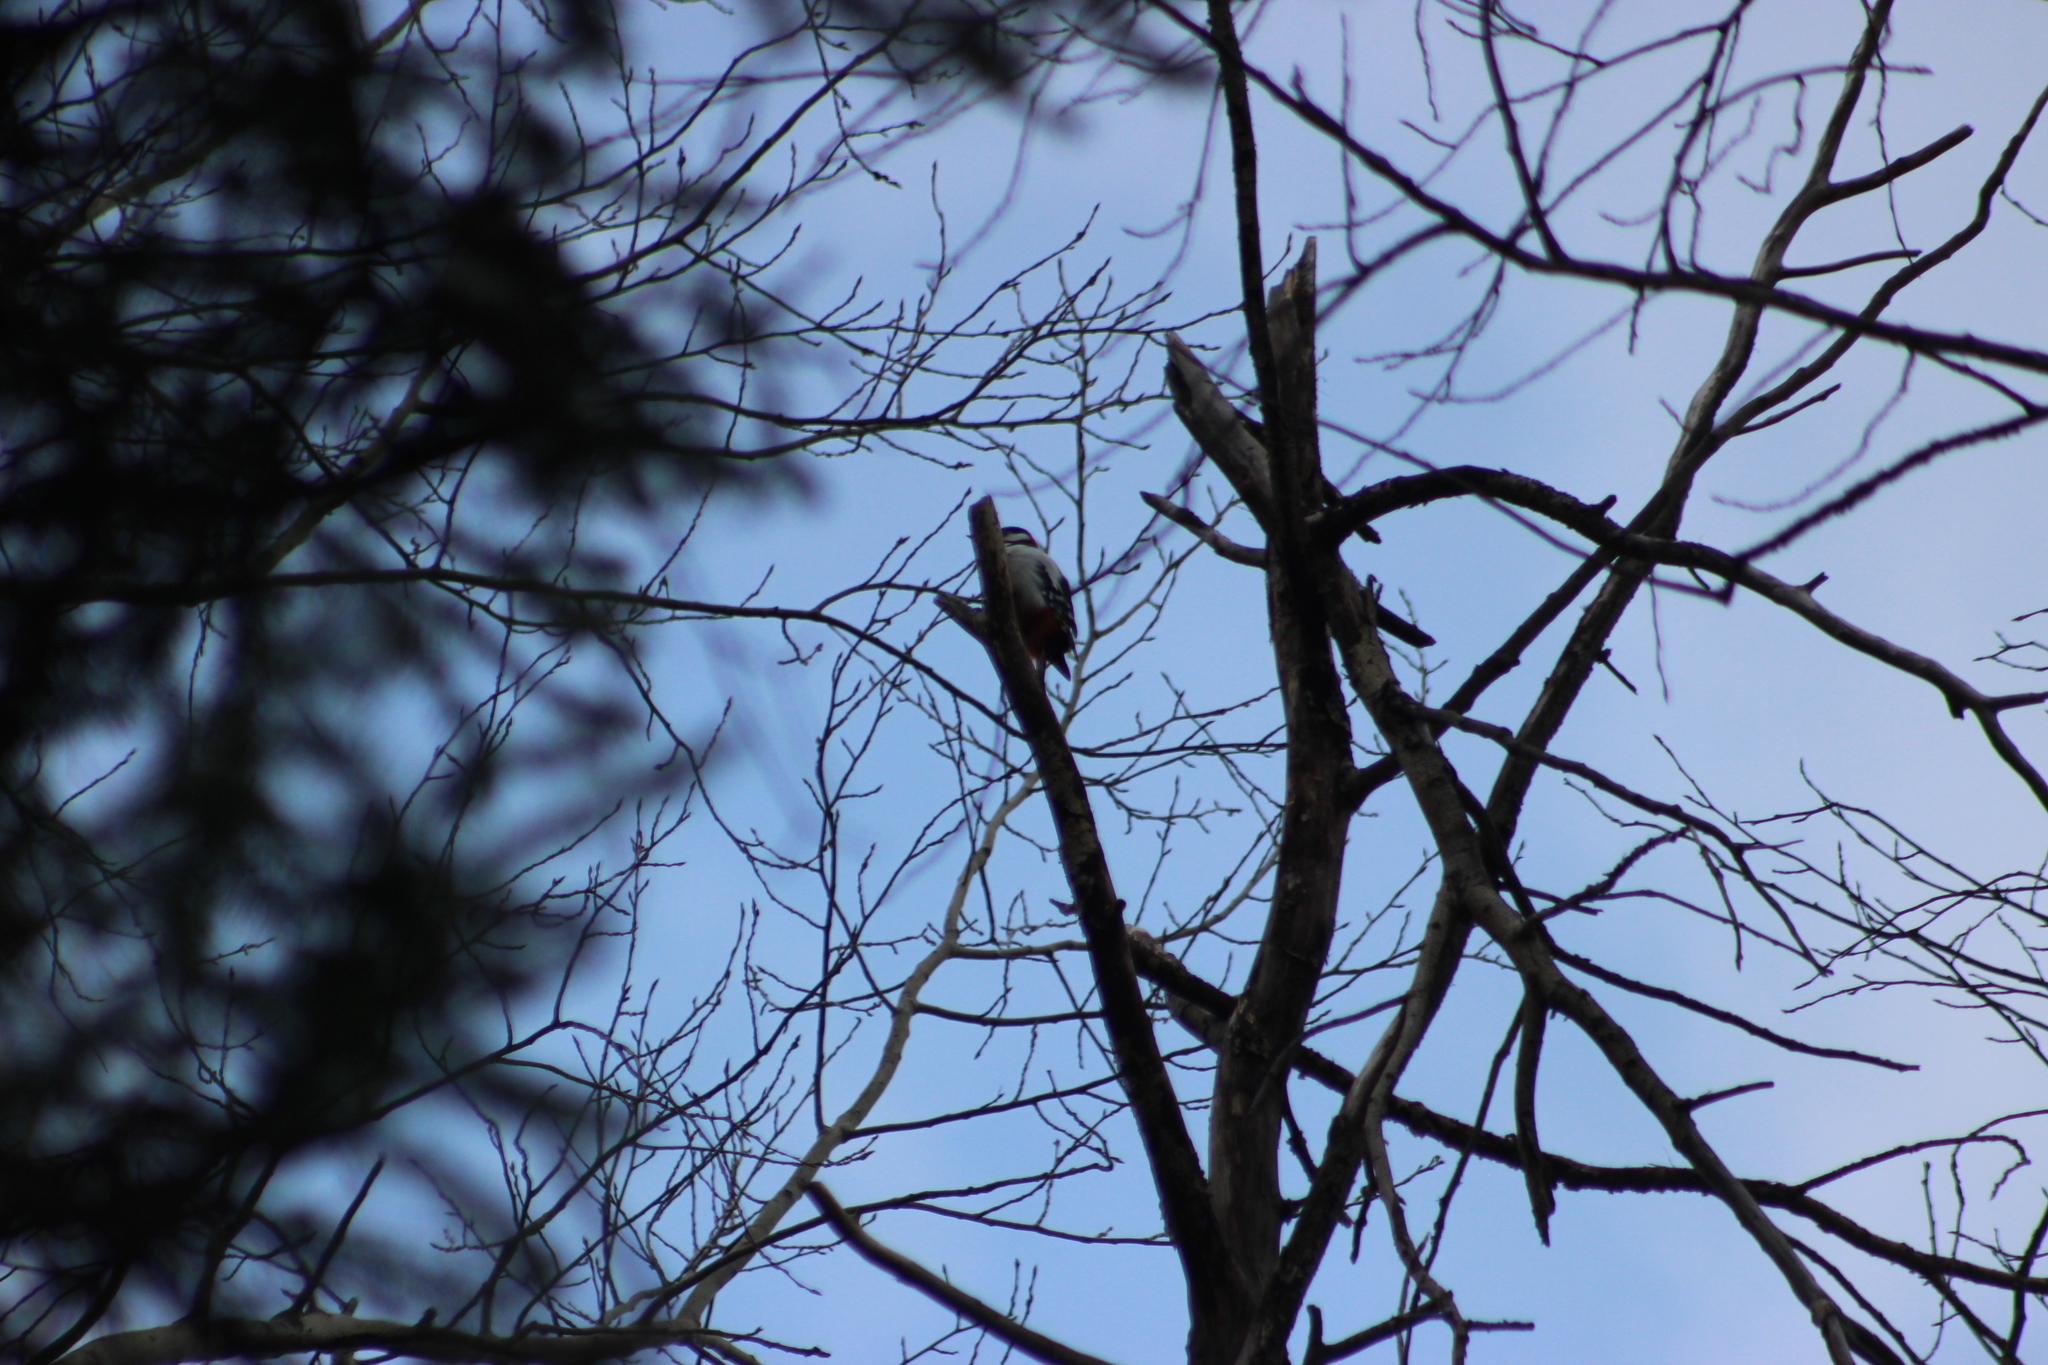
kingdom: Animalia
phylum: Chordata
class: Aves
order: Piciformes
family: Picidae
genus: Dendrocopos
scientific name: Dendrocopos major
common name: Great spotted woodpecker
